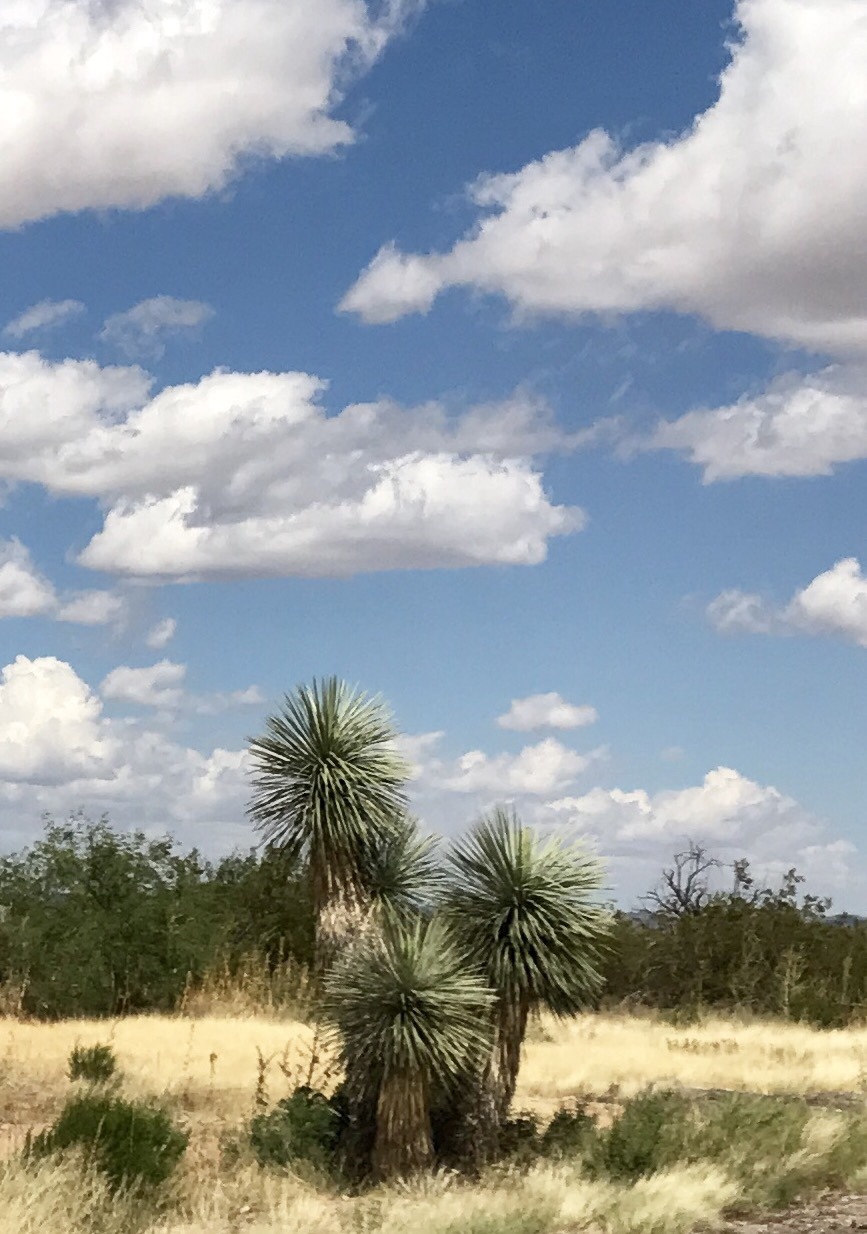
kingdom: Plantae
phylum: Tracheophyta
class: Liliopsida
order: Asparagales
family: Asparagaceae
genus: Yucca
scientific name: Yucca elata
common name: Palmella
